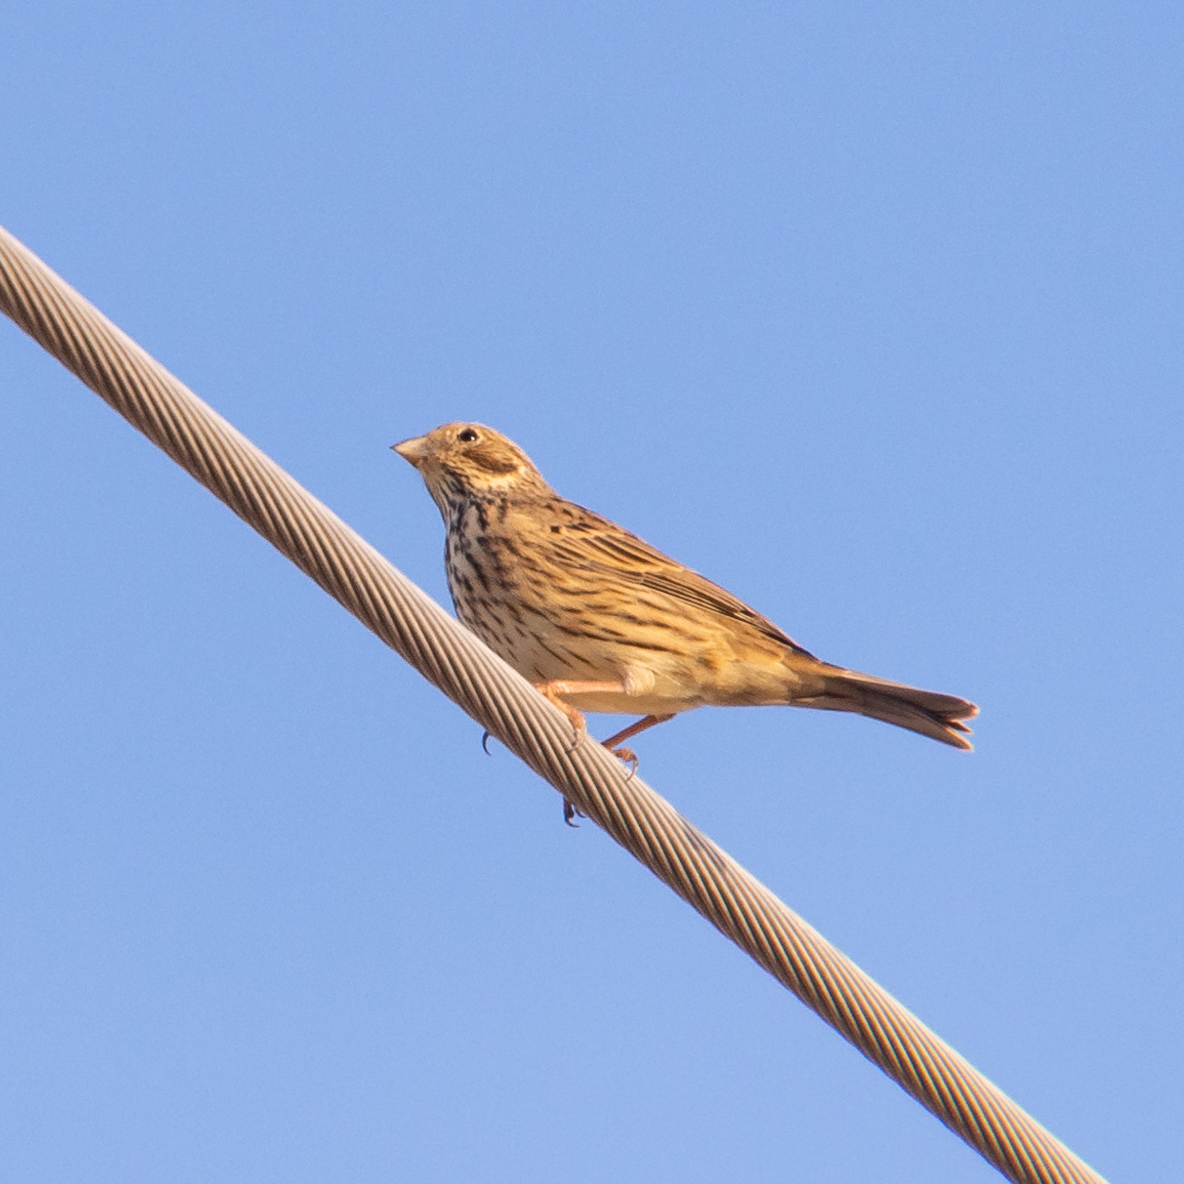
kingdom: Animalia
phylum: Chordata
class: Aves
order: Passeriformes
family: Emberizidae
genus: Emberiza
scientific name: Emberiza calandra
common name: Corn bunting
